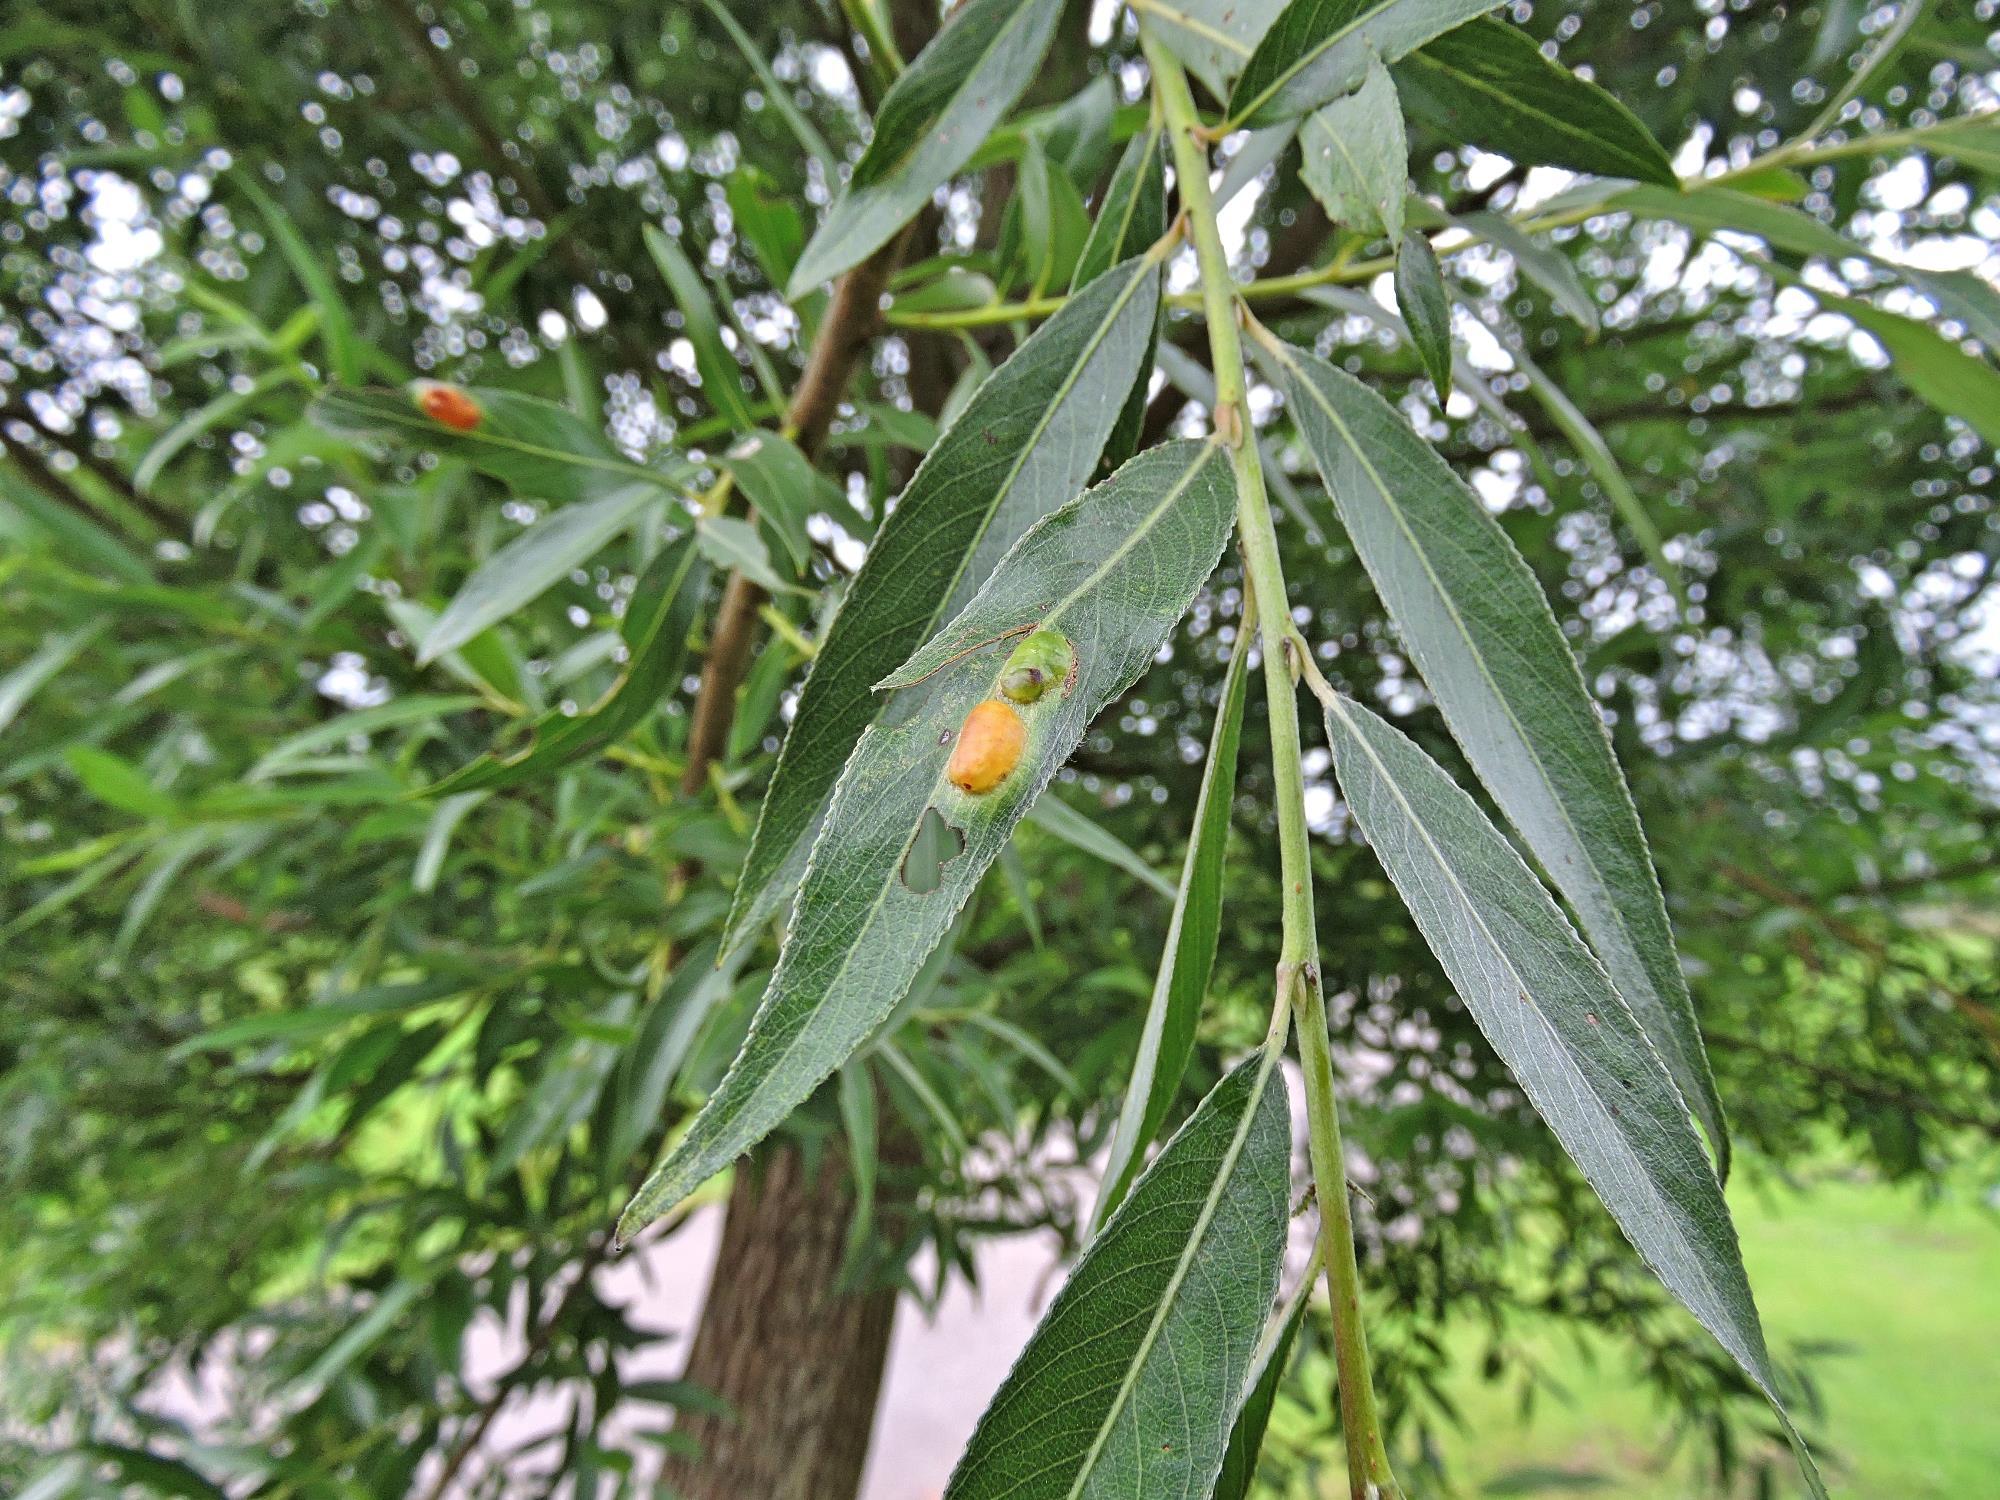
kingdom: Animalia
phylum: Arthropoda
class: Insecta
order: Hymenoptera
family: Tenthredinidae
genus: Pontania
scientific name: Pontania proxima
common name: Common sawfly
